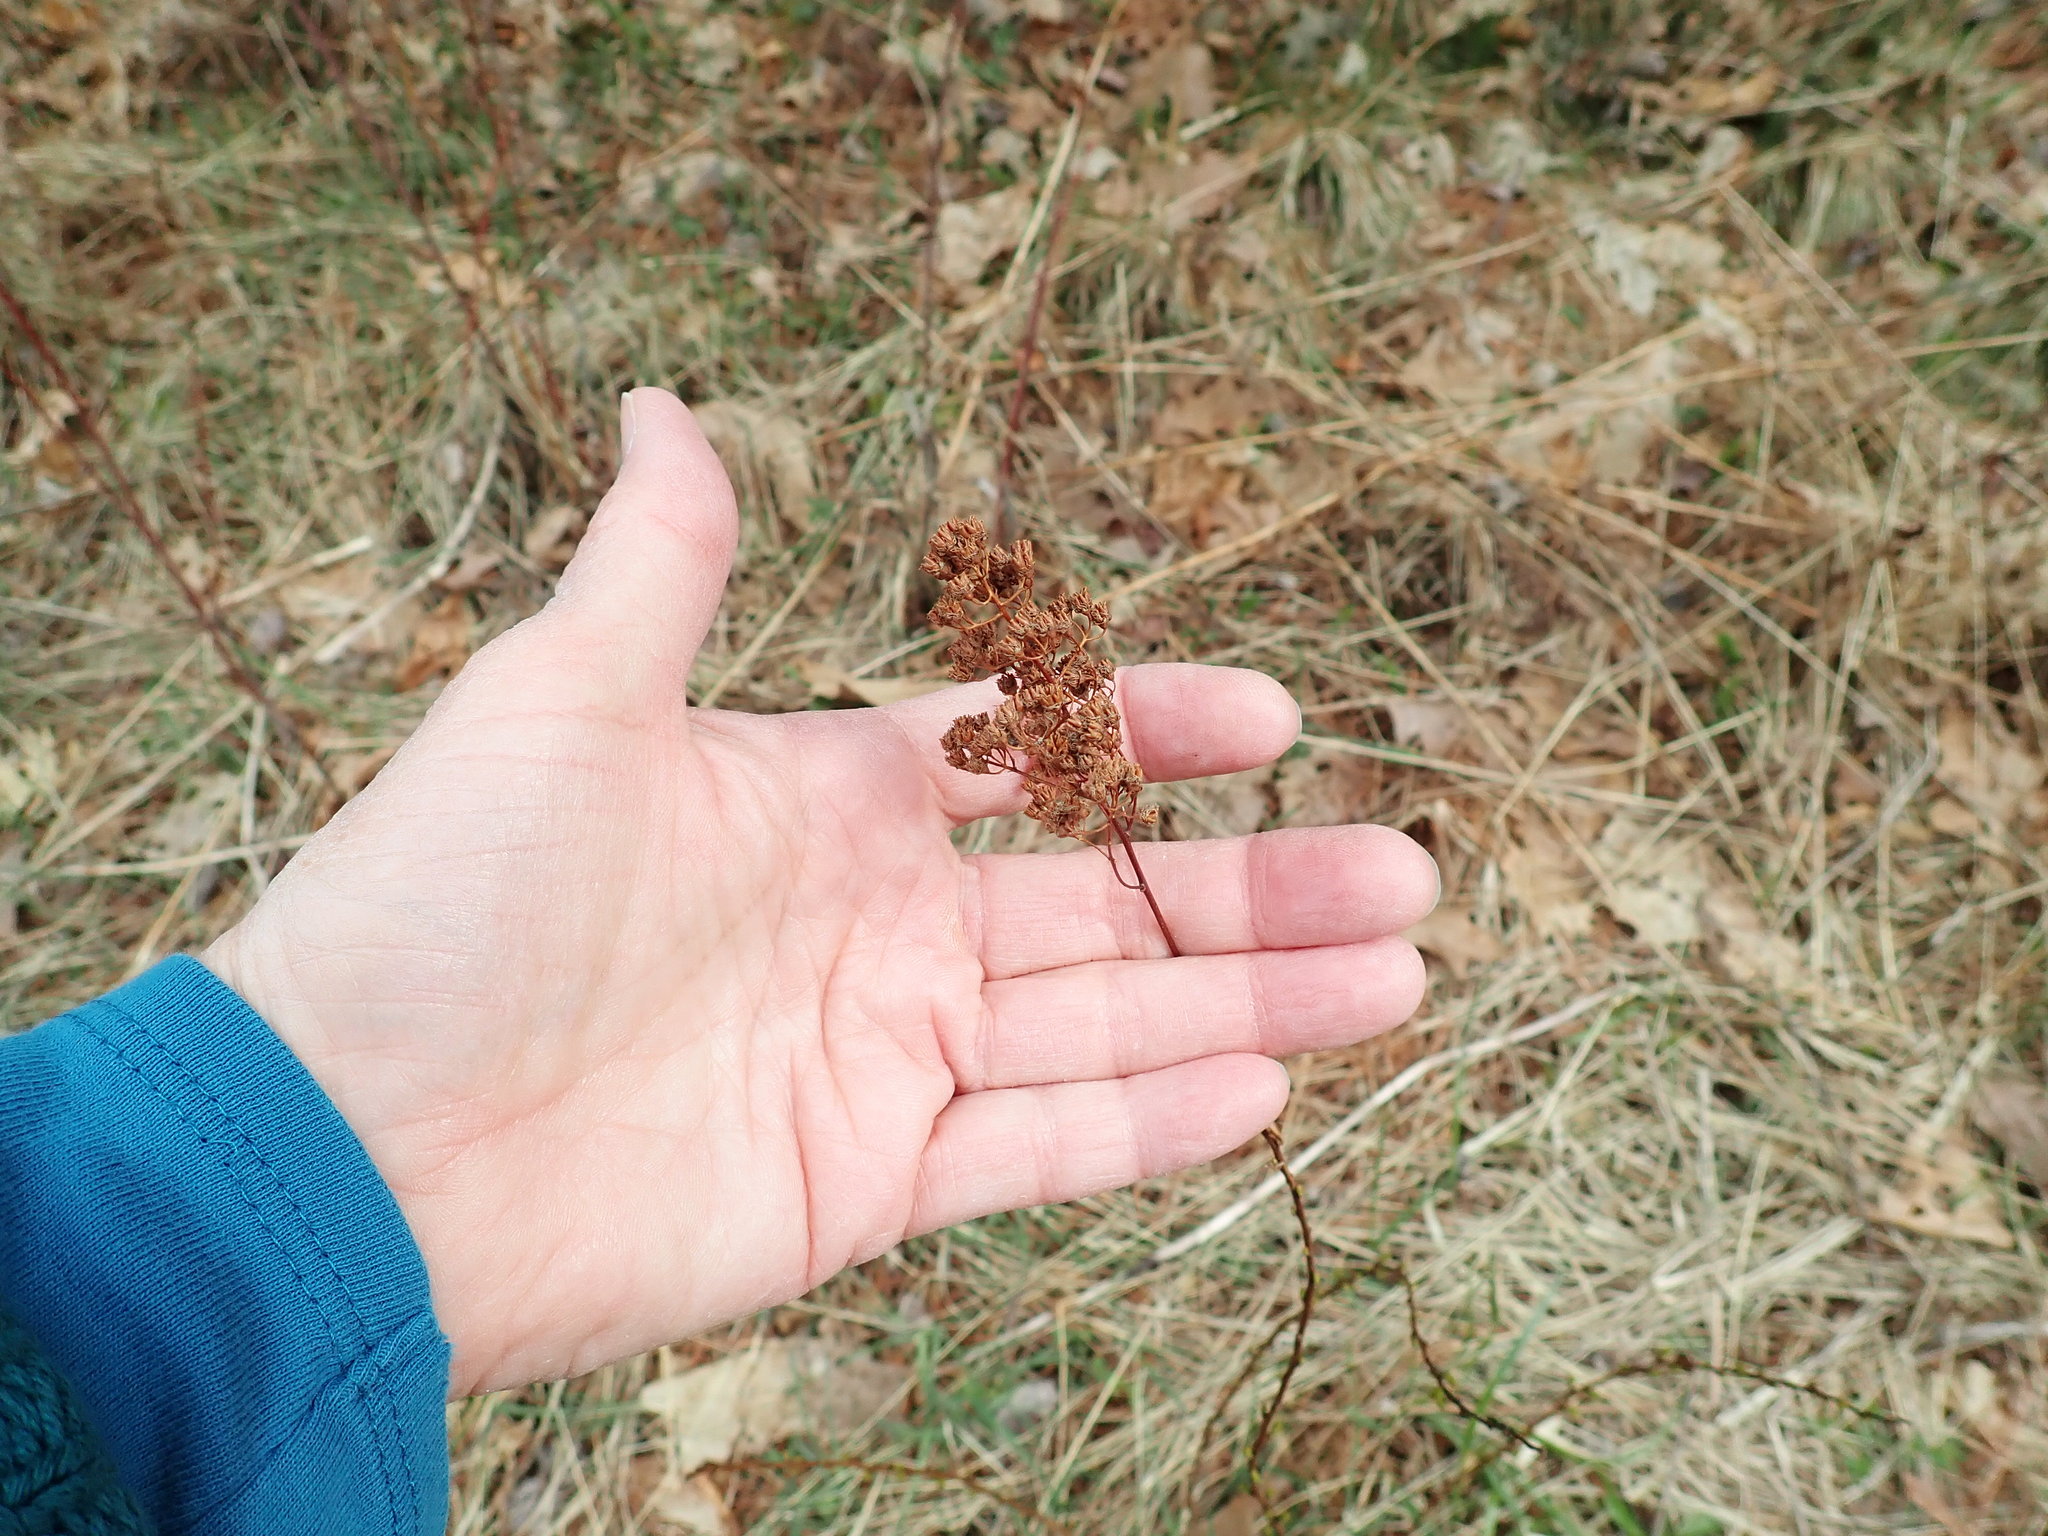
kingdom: Plantae
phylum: Tracheophyta
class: Magnoliopsida
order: Rosales
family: Rosaceae
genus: Spiraea
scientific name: Spiraea alba
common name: Pale bridewort
